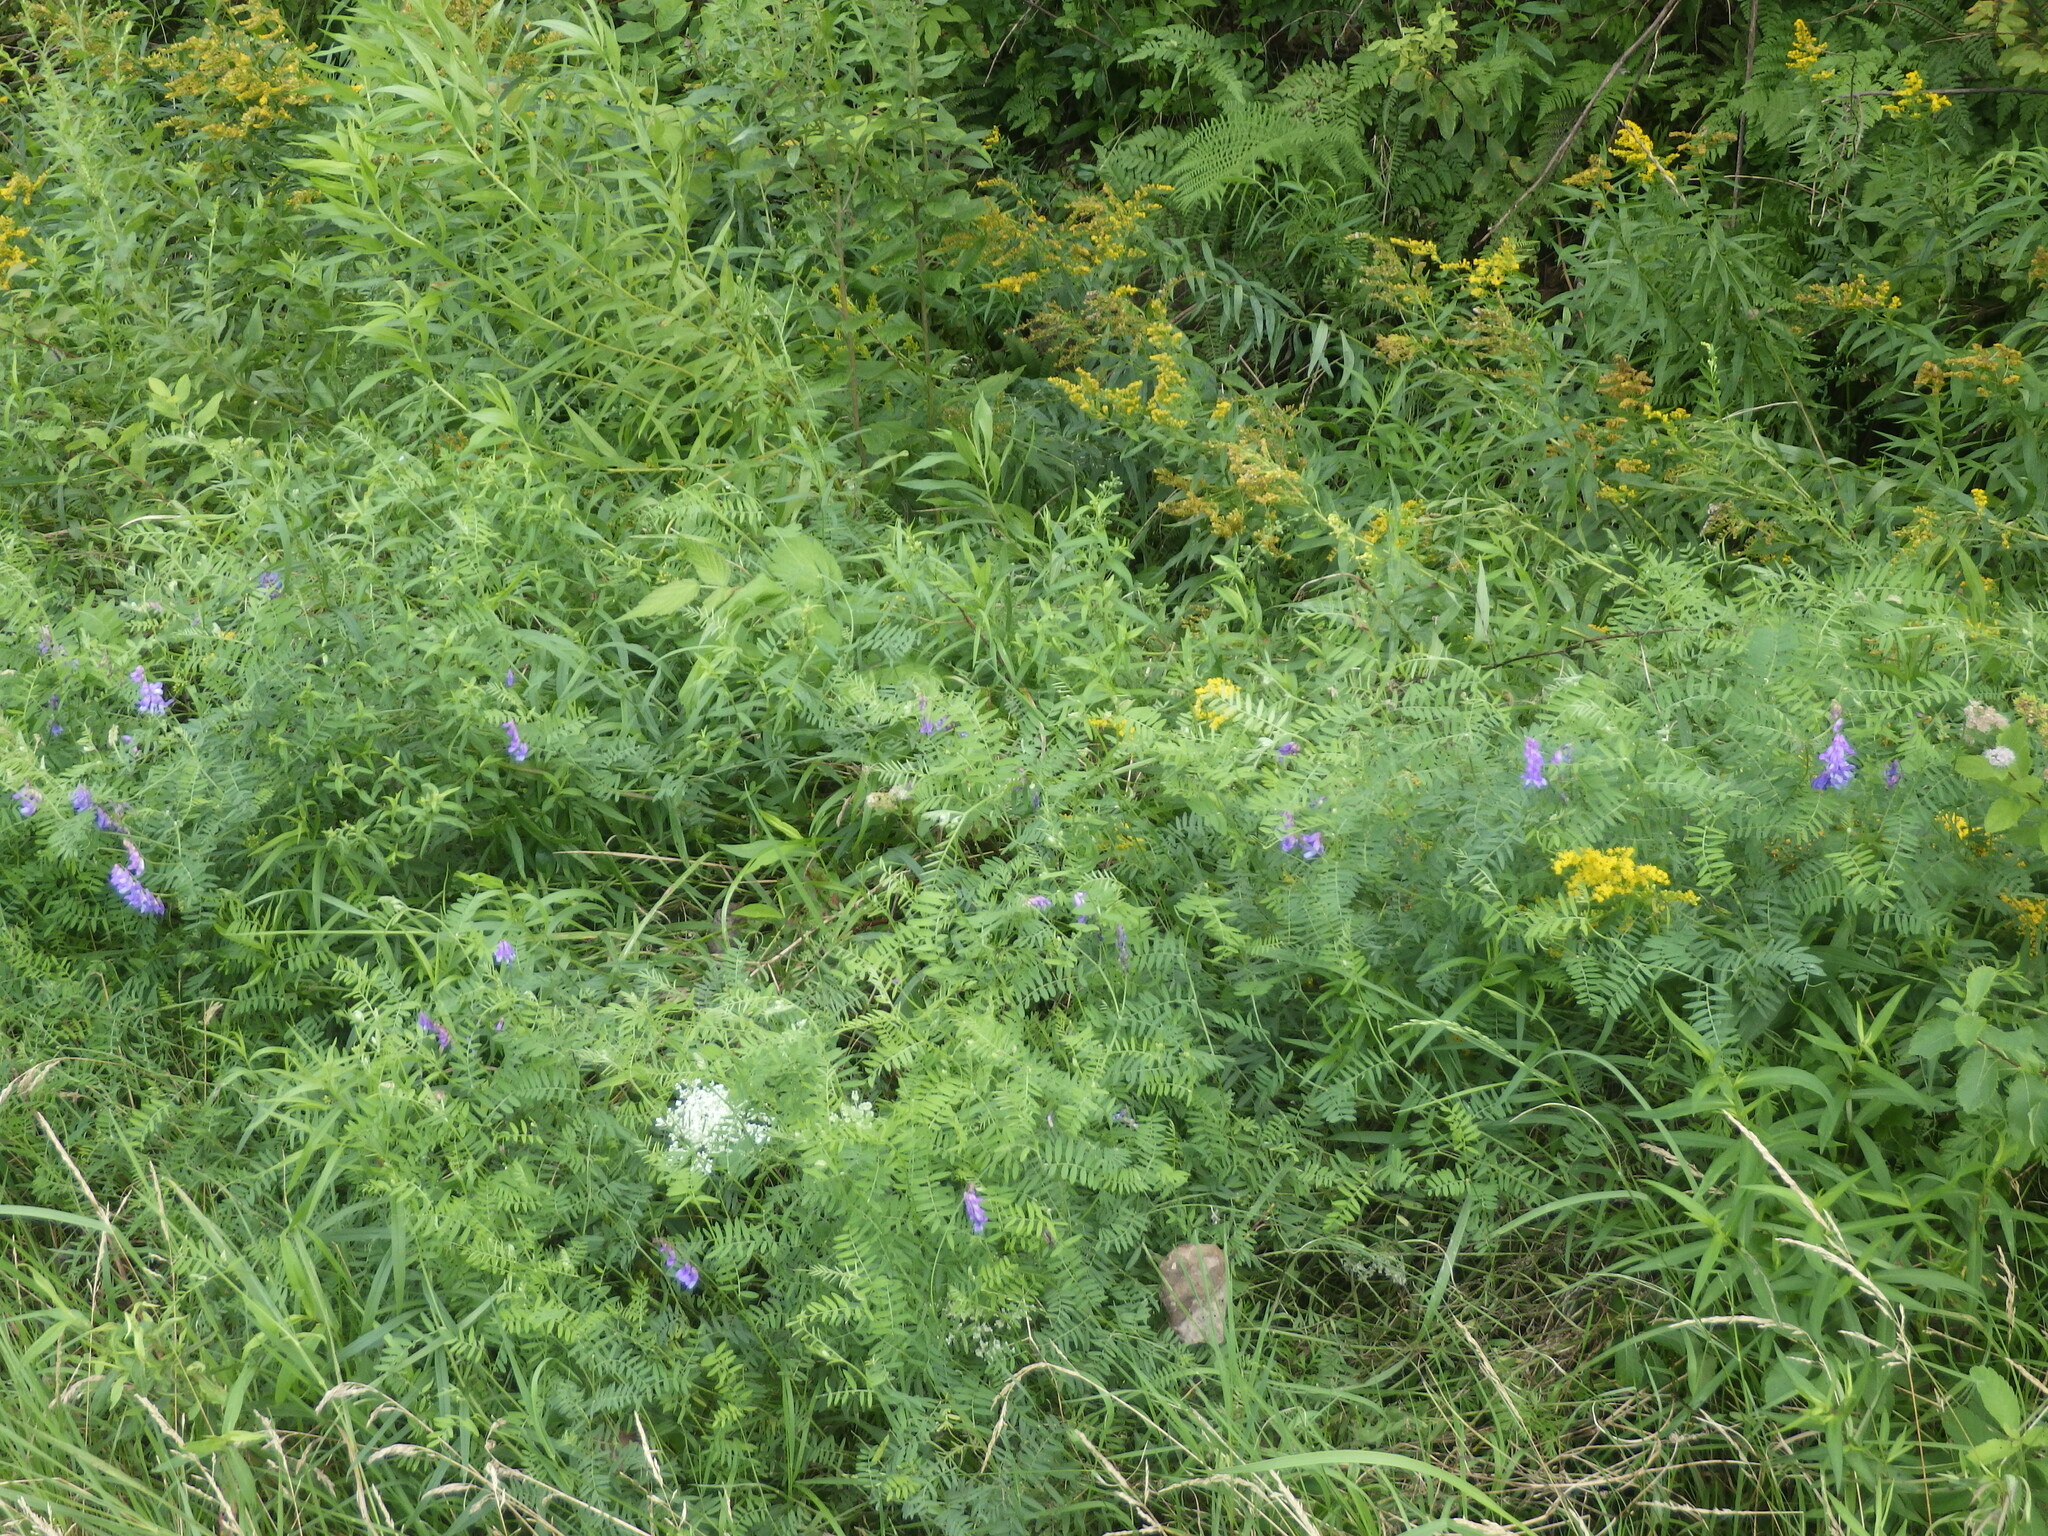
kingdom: Plantae
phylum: Tracheophyta
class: Magnoliopsida
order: Fabales
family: Fabaceae
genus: Vicia
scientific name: Vicia cracca
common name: Bird vetch
